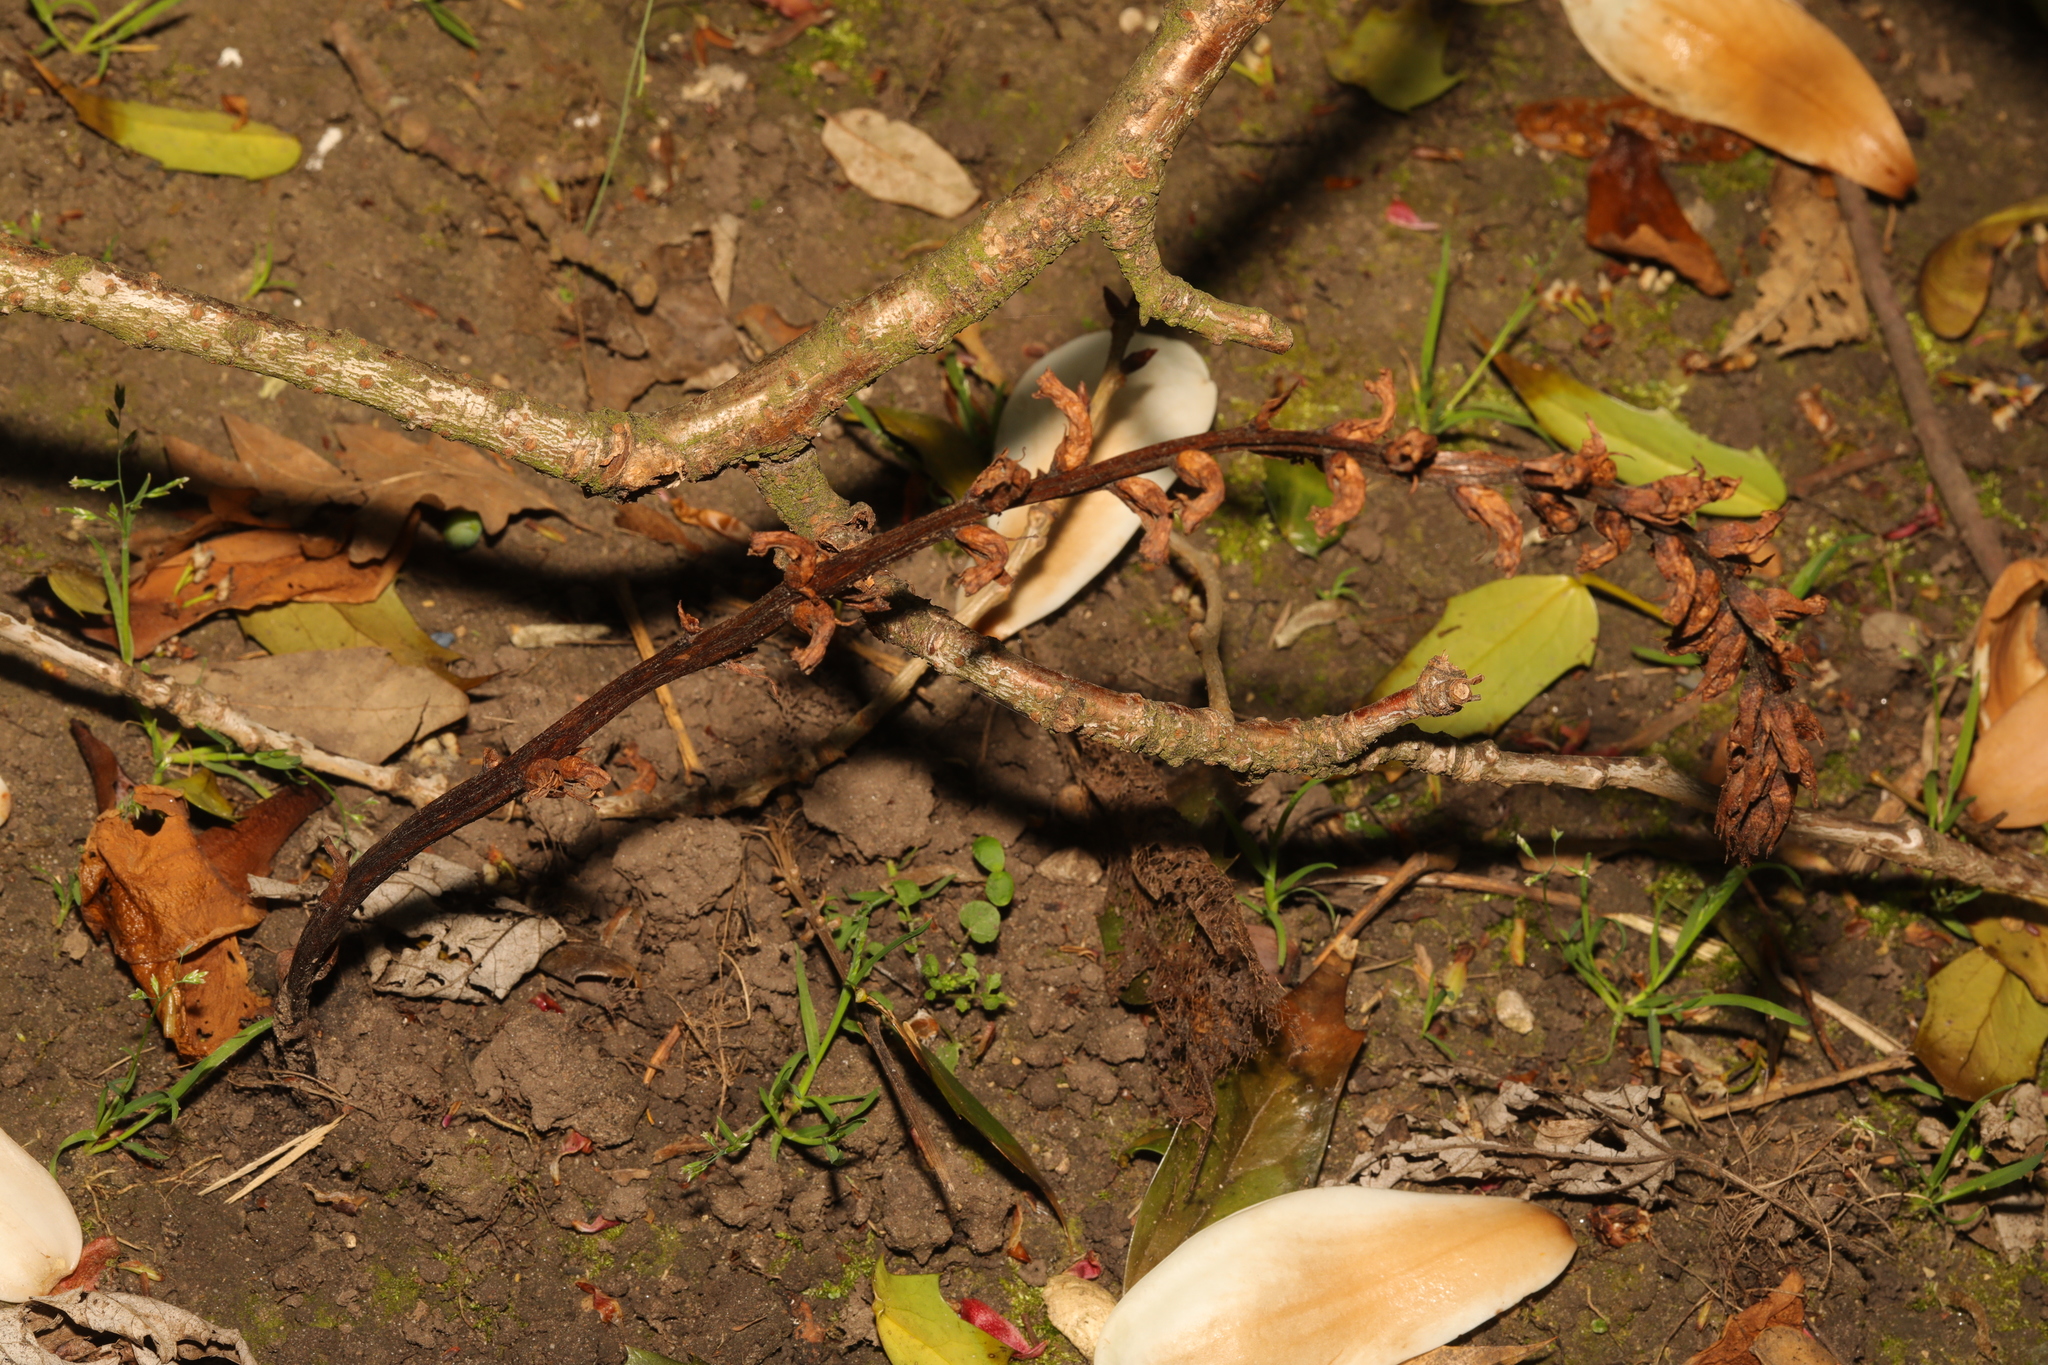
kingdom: Plantae
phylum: Tracheophyta
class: Magnoliopsida
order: Lamiales
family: Orobanchaceae
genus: Orobanche
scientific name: Orobanche hederae
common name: Ivy broomrape
